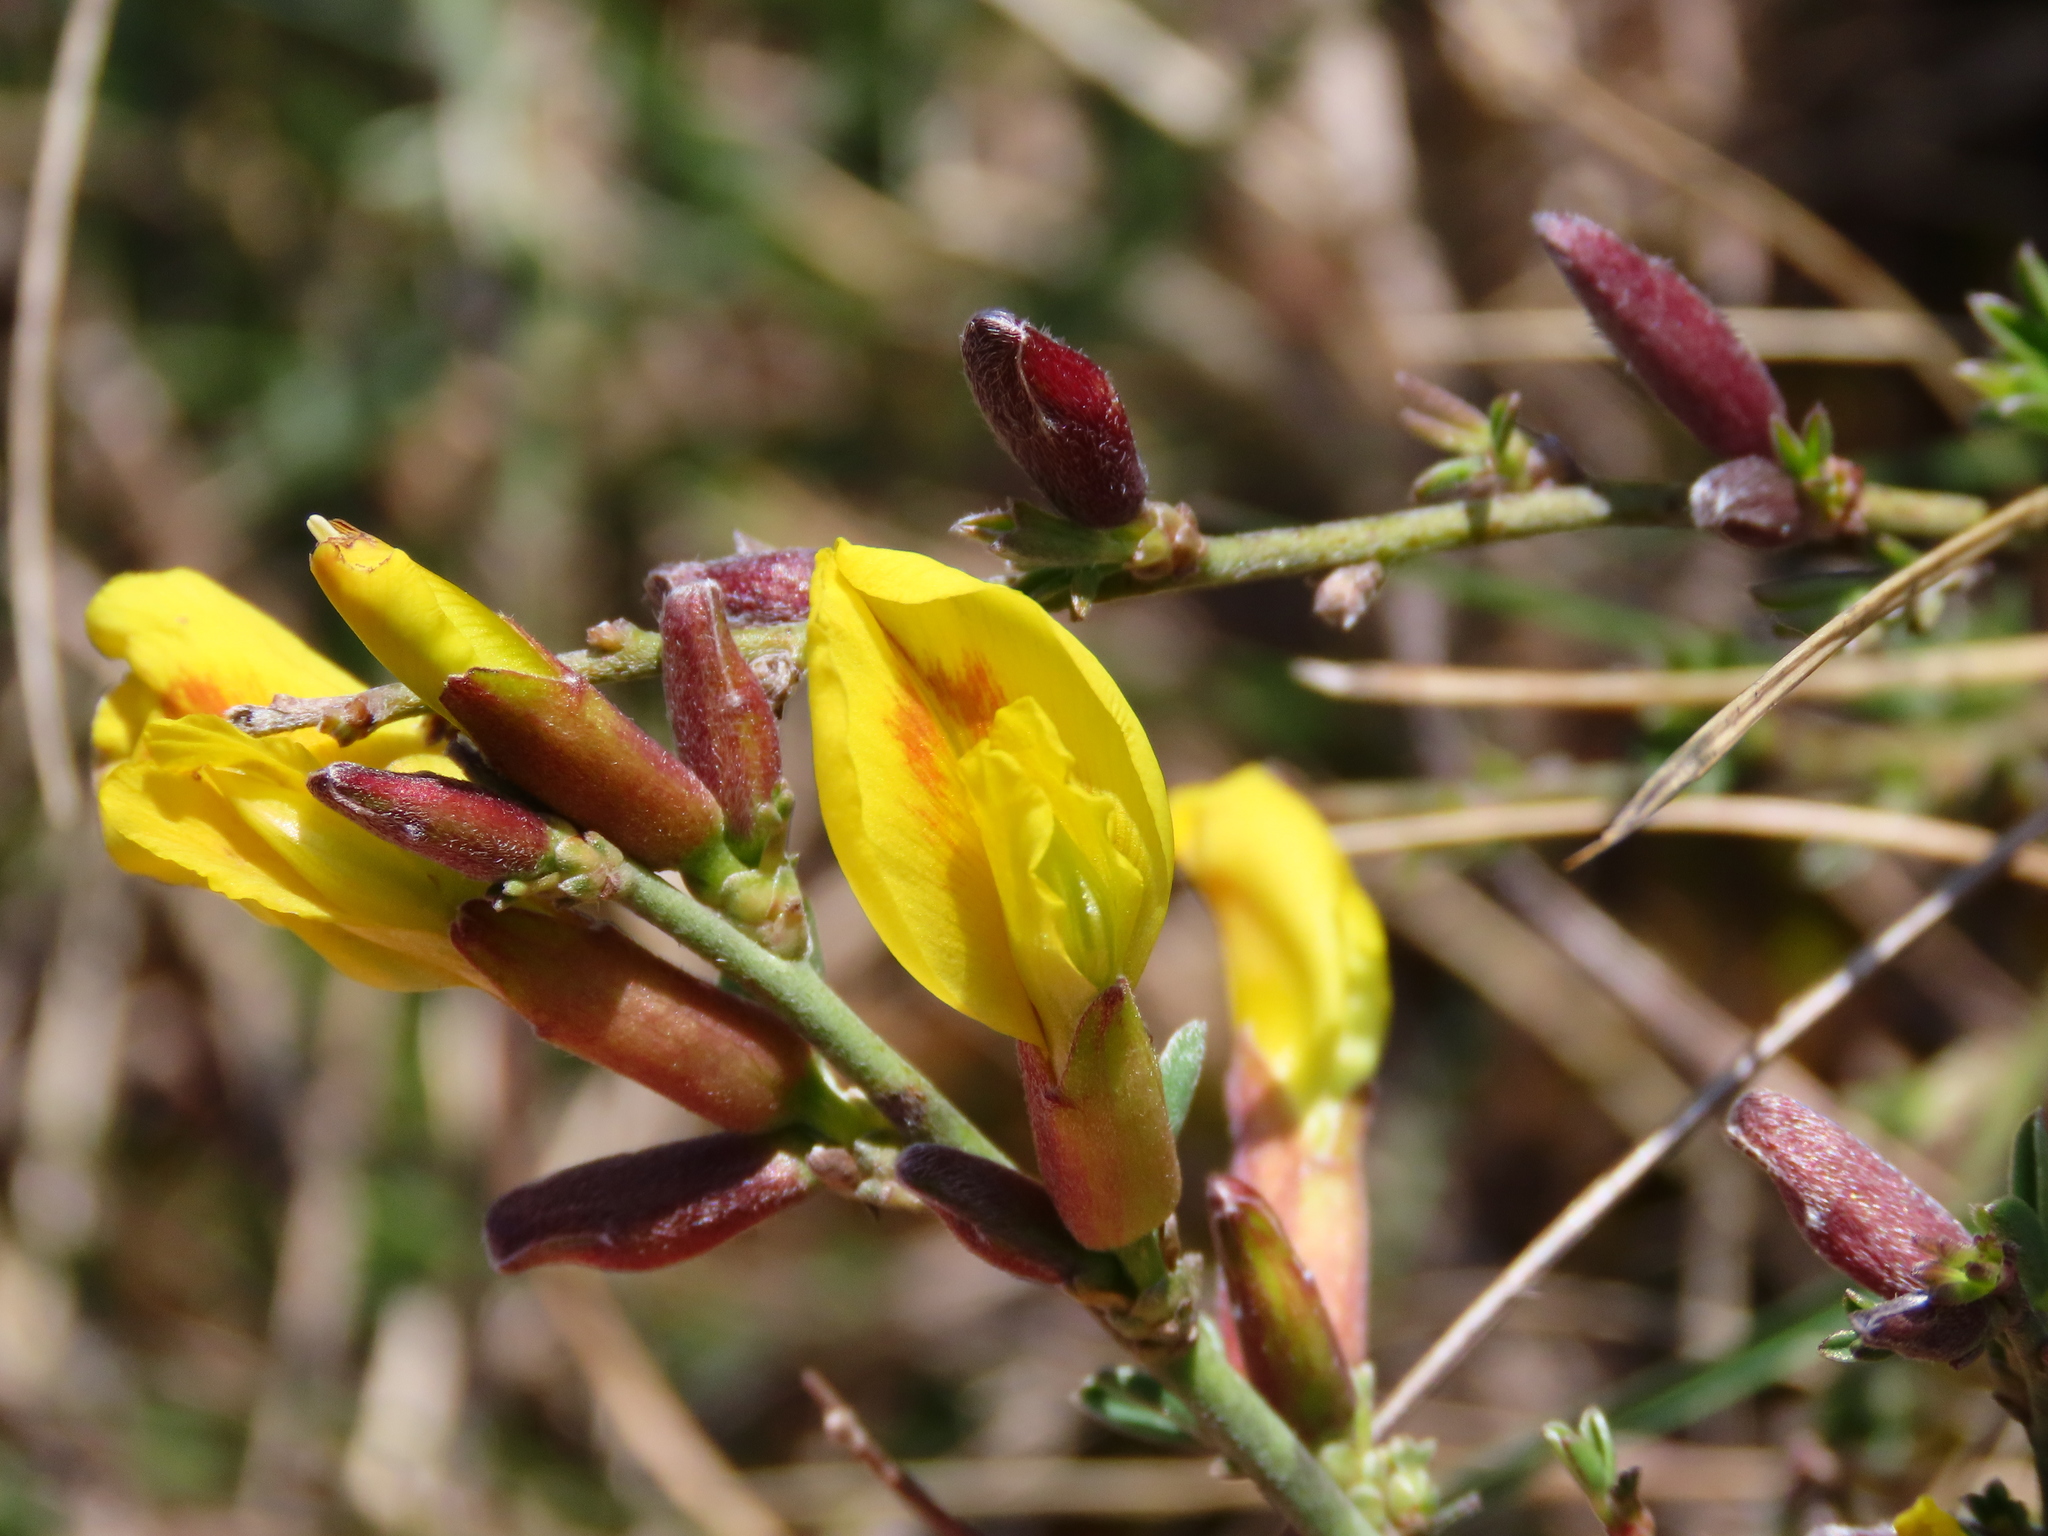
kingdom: Plantae
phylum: Tracheophyta
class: Magnoliopsida
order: Fabales
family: Fabaceae
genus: Chamaecytisus
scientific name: Chamaecytisus spinescens
